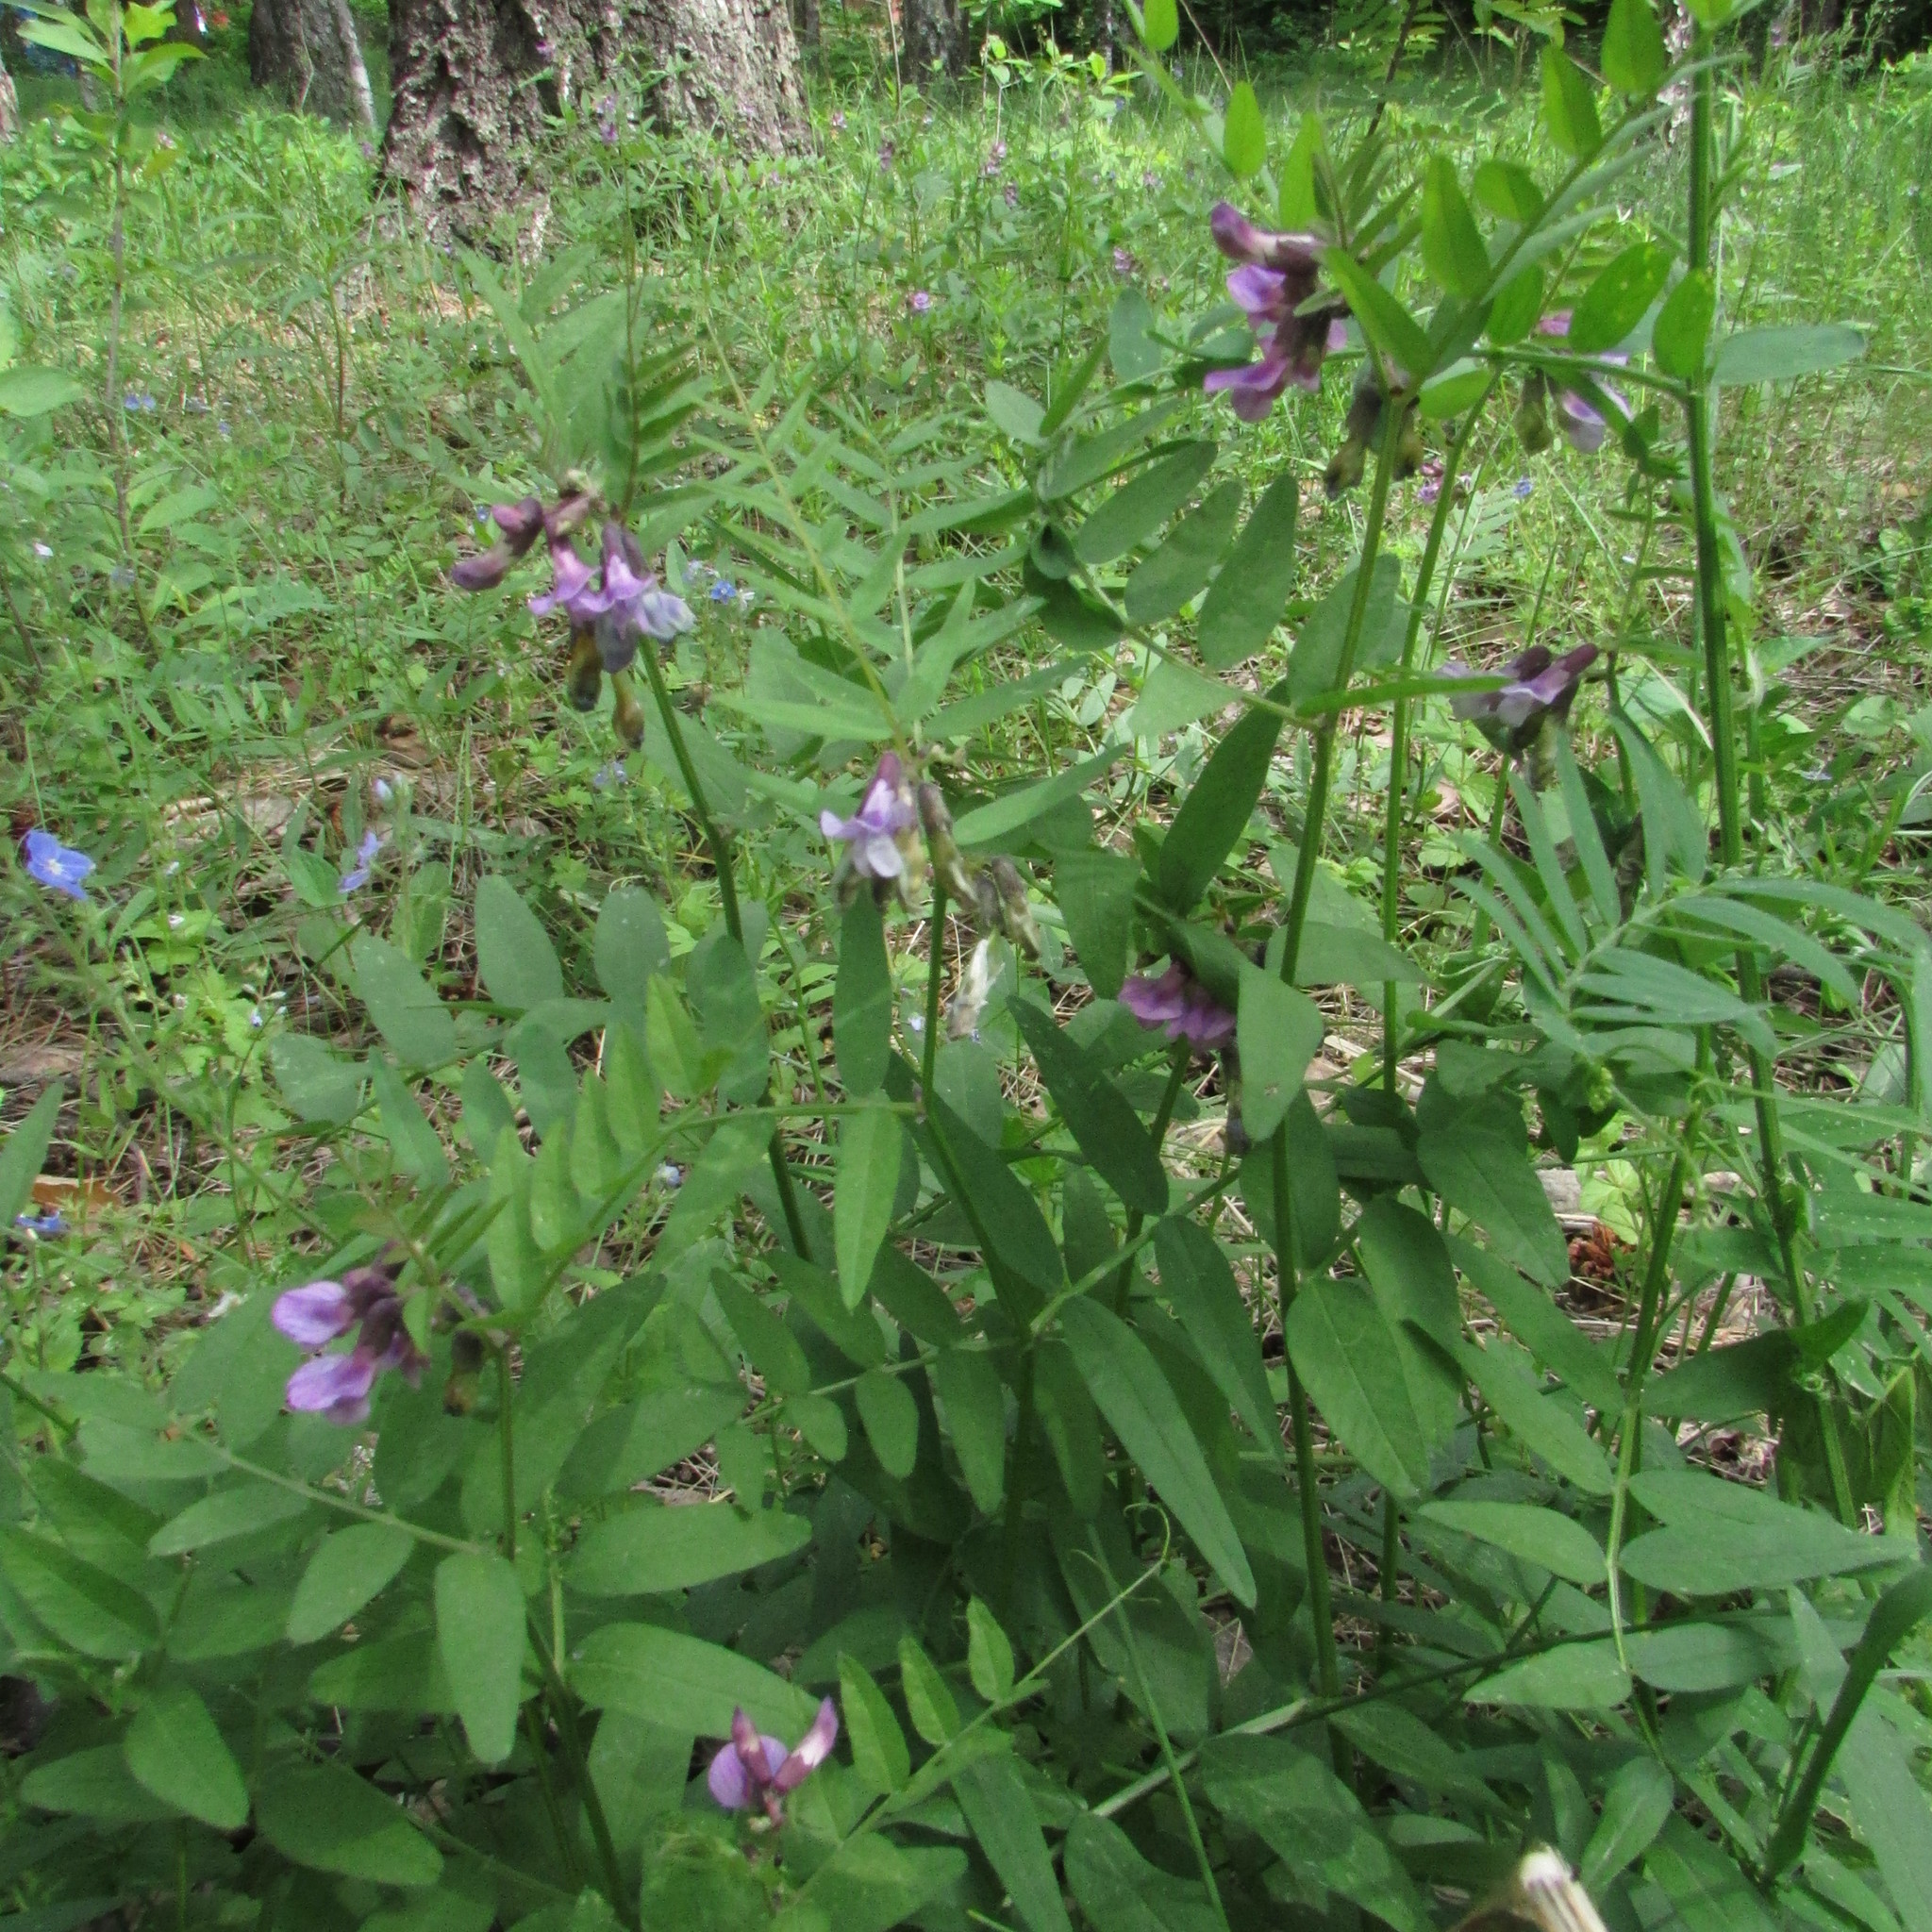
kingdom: Plantae
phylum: Tracheophyta
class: Magnoliopsida
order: Fabales
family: Fabaceae
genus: Vicia
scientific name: Vicia sepium
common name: Bush vetch
